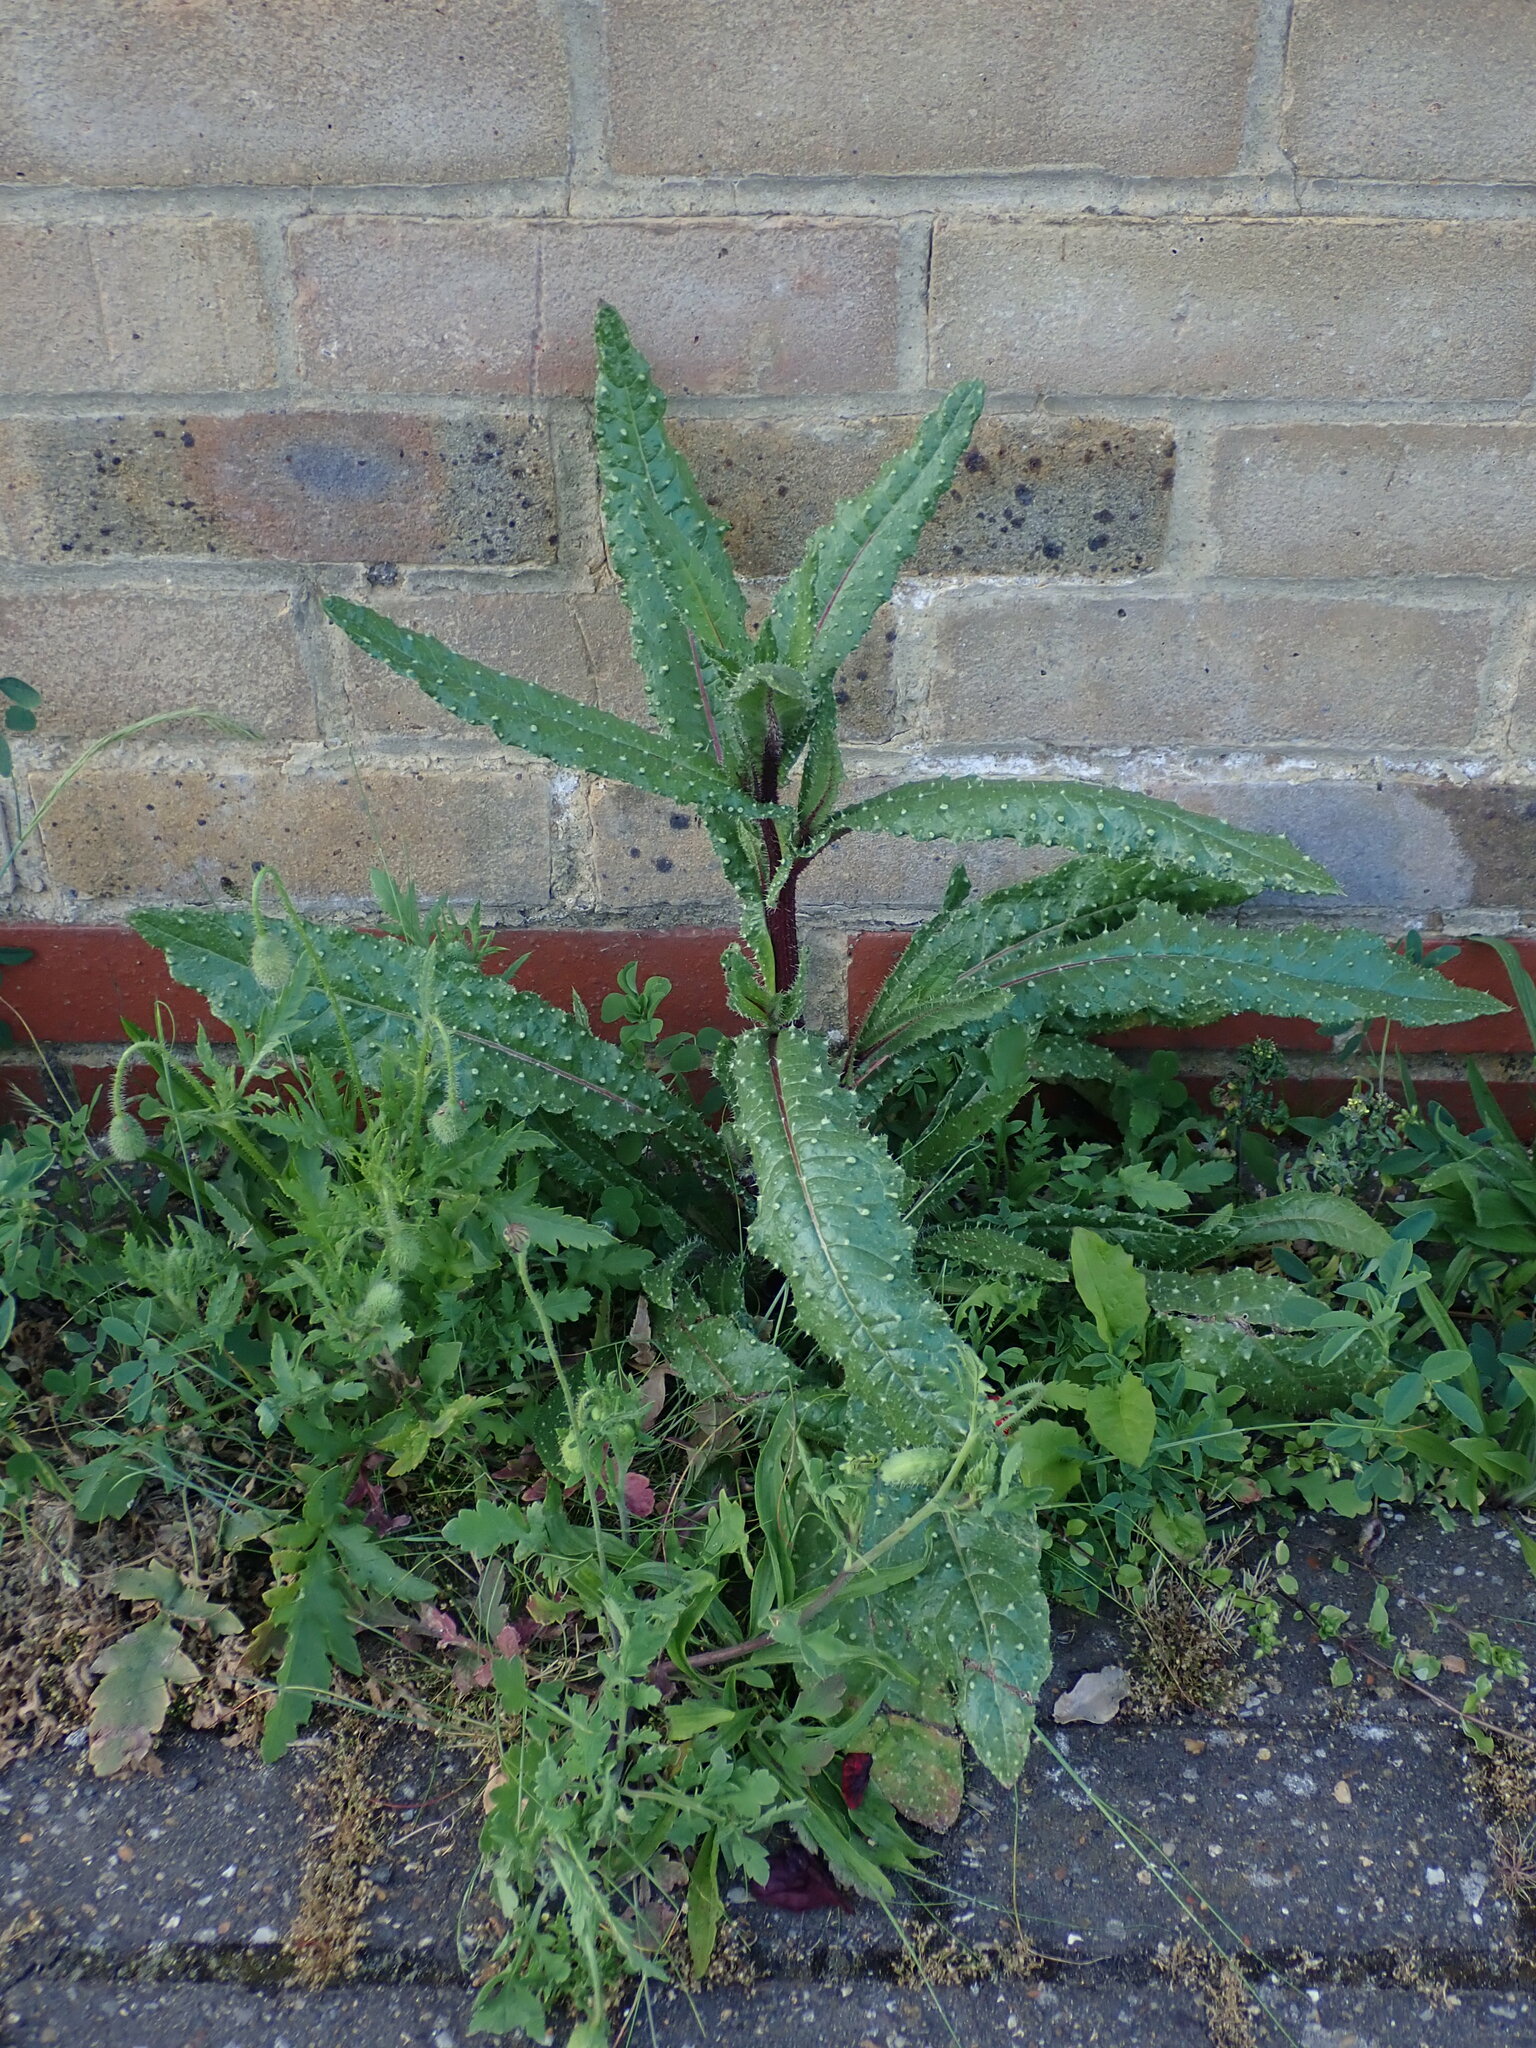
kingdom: Plantae
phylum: Tracheophyta
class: Magnoliopsida
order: Asterales
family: Asteraceae
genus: Helminthotheca
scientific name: Helminthotheca echioides
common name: Ox-tongue
